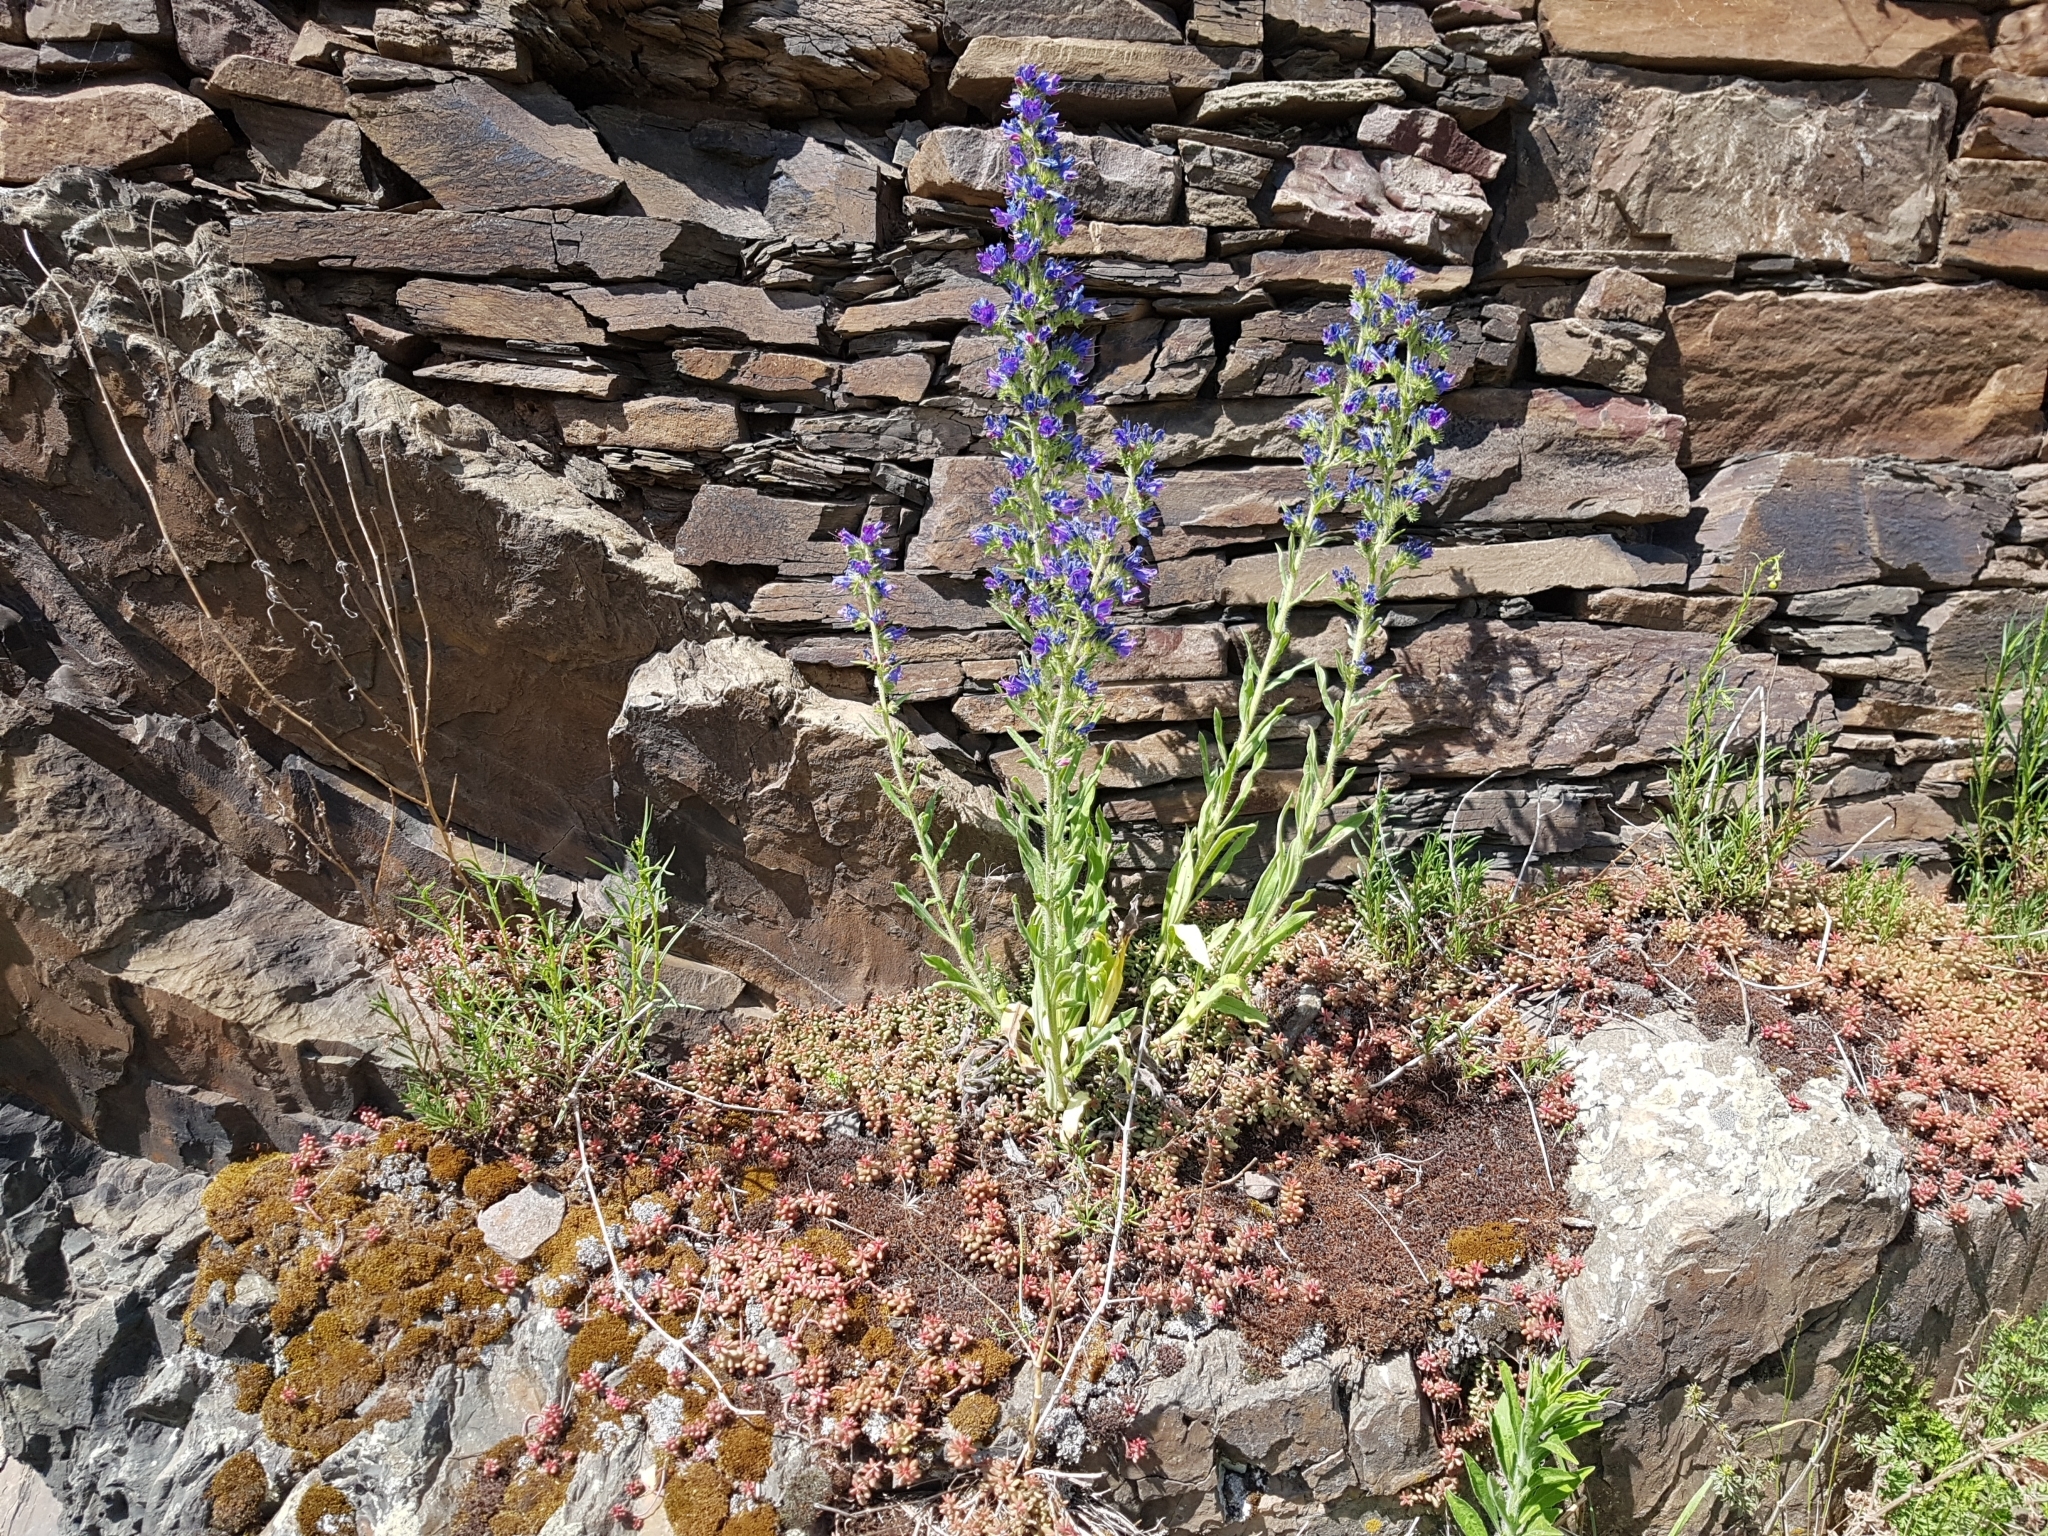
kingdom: Plantae
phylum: Tracheophyta
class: Magnoliopsida
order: Boraginales
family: Boraginaceae
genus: Echium
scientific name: Echium vulgare
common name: Common viper's bugloss
